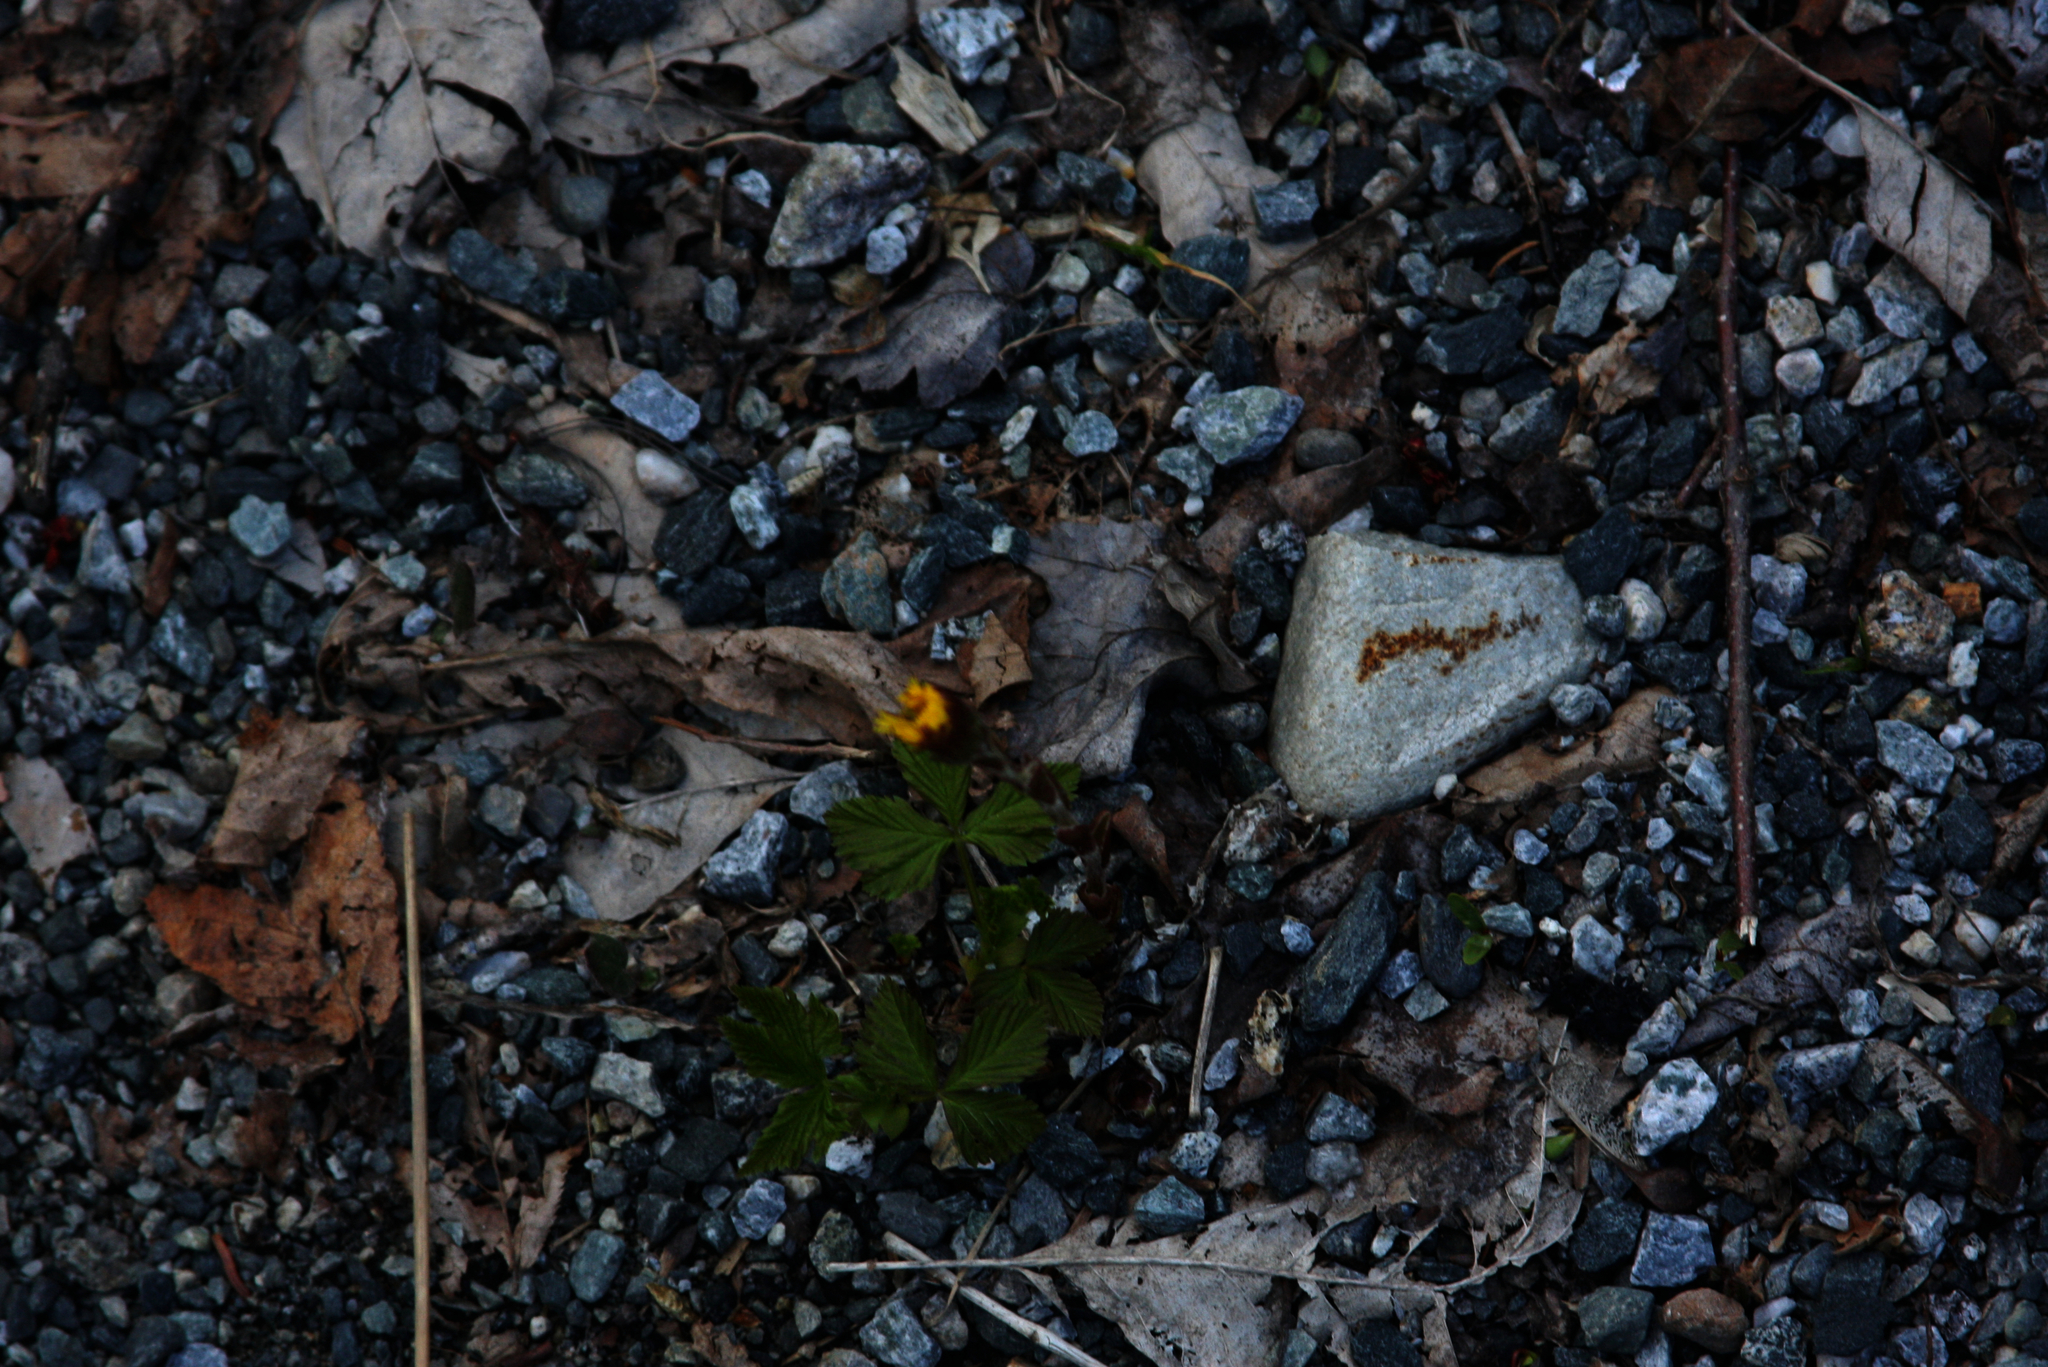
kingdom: Plantae
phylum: Tracheophyta
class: Magnoliopsida
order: Asterales
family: Asteraceae
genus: Tussilago
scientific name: Tussilago farfara
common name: Coltsfoot
